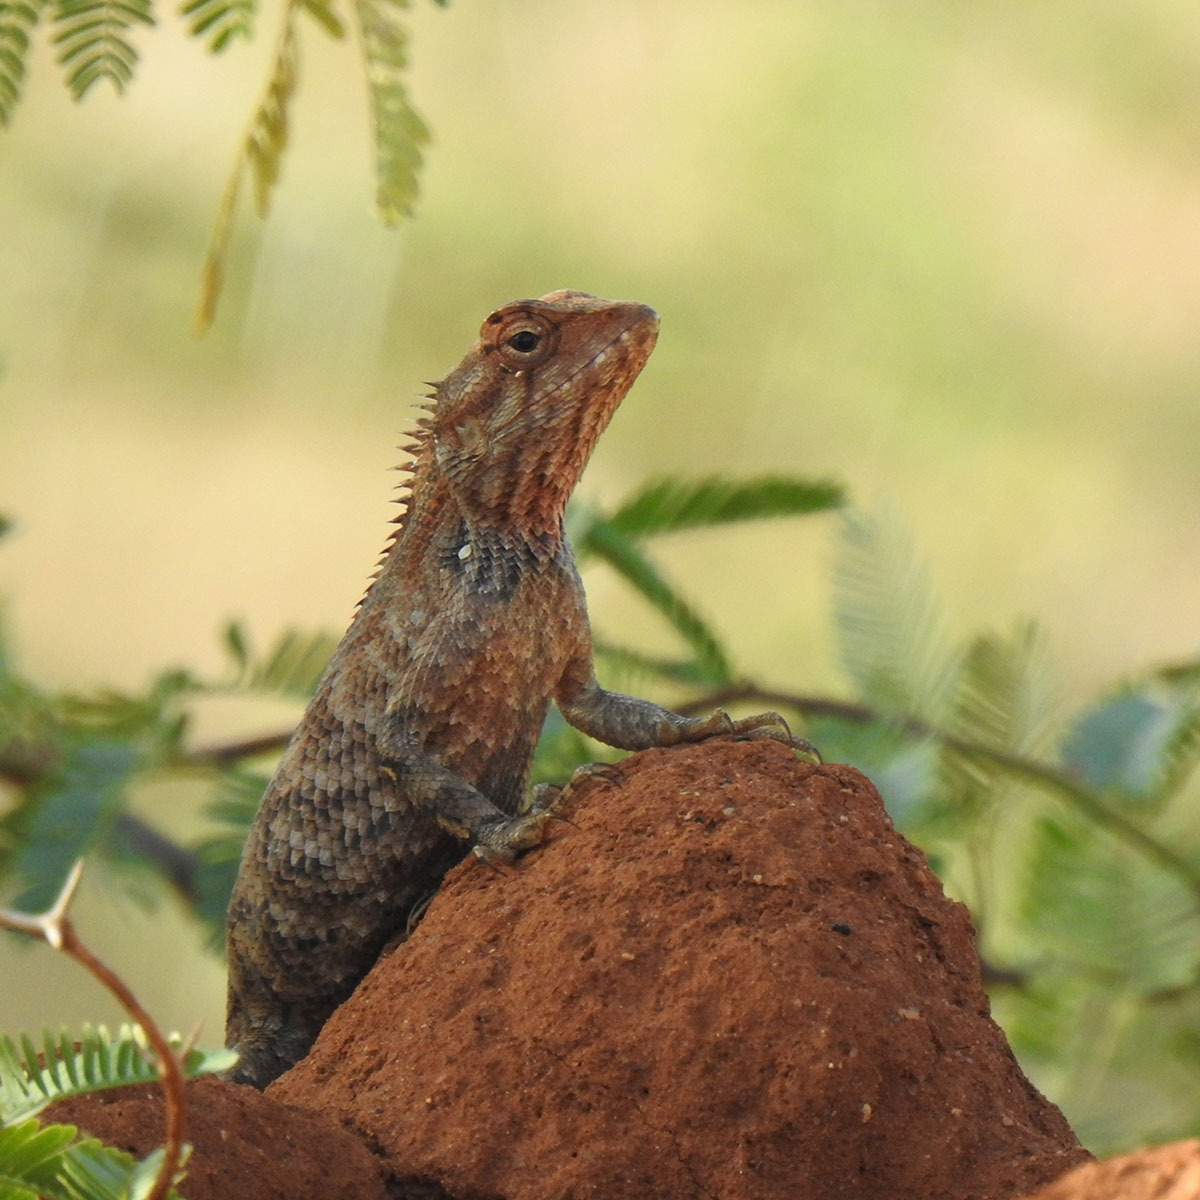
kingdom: Animalia
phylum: Chordata
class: Squamata
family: Agamidae
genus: Calotes
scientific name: Calotes versicolor
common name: Oriental garden lizard
